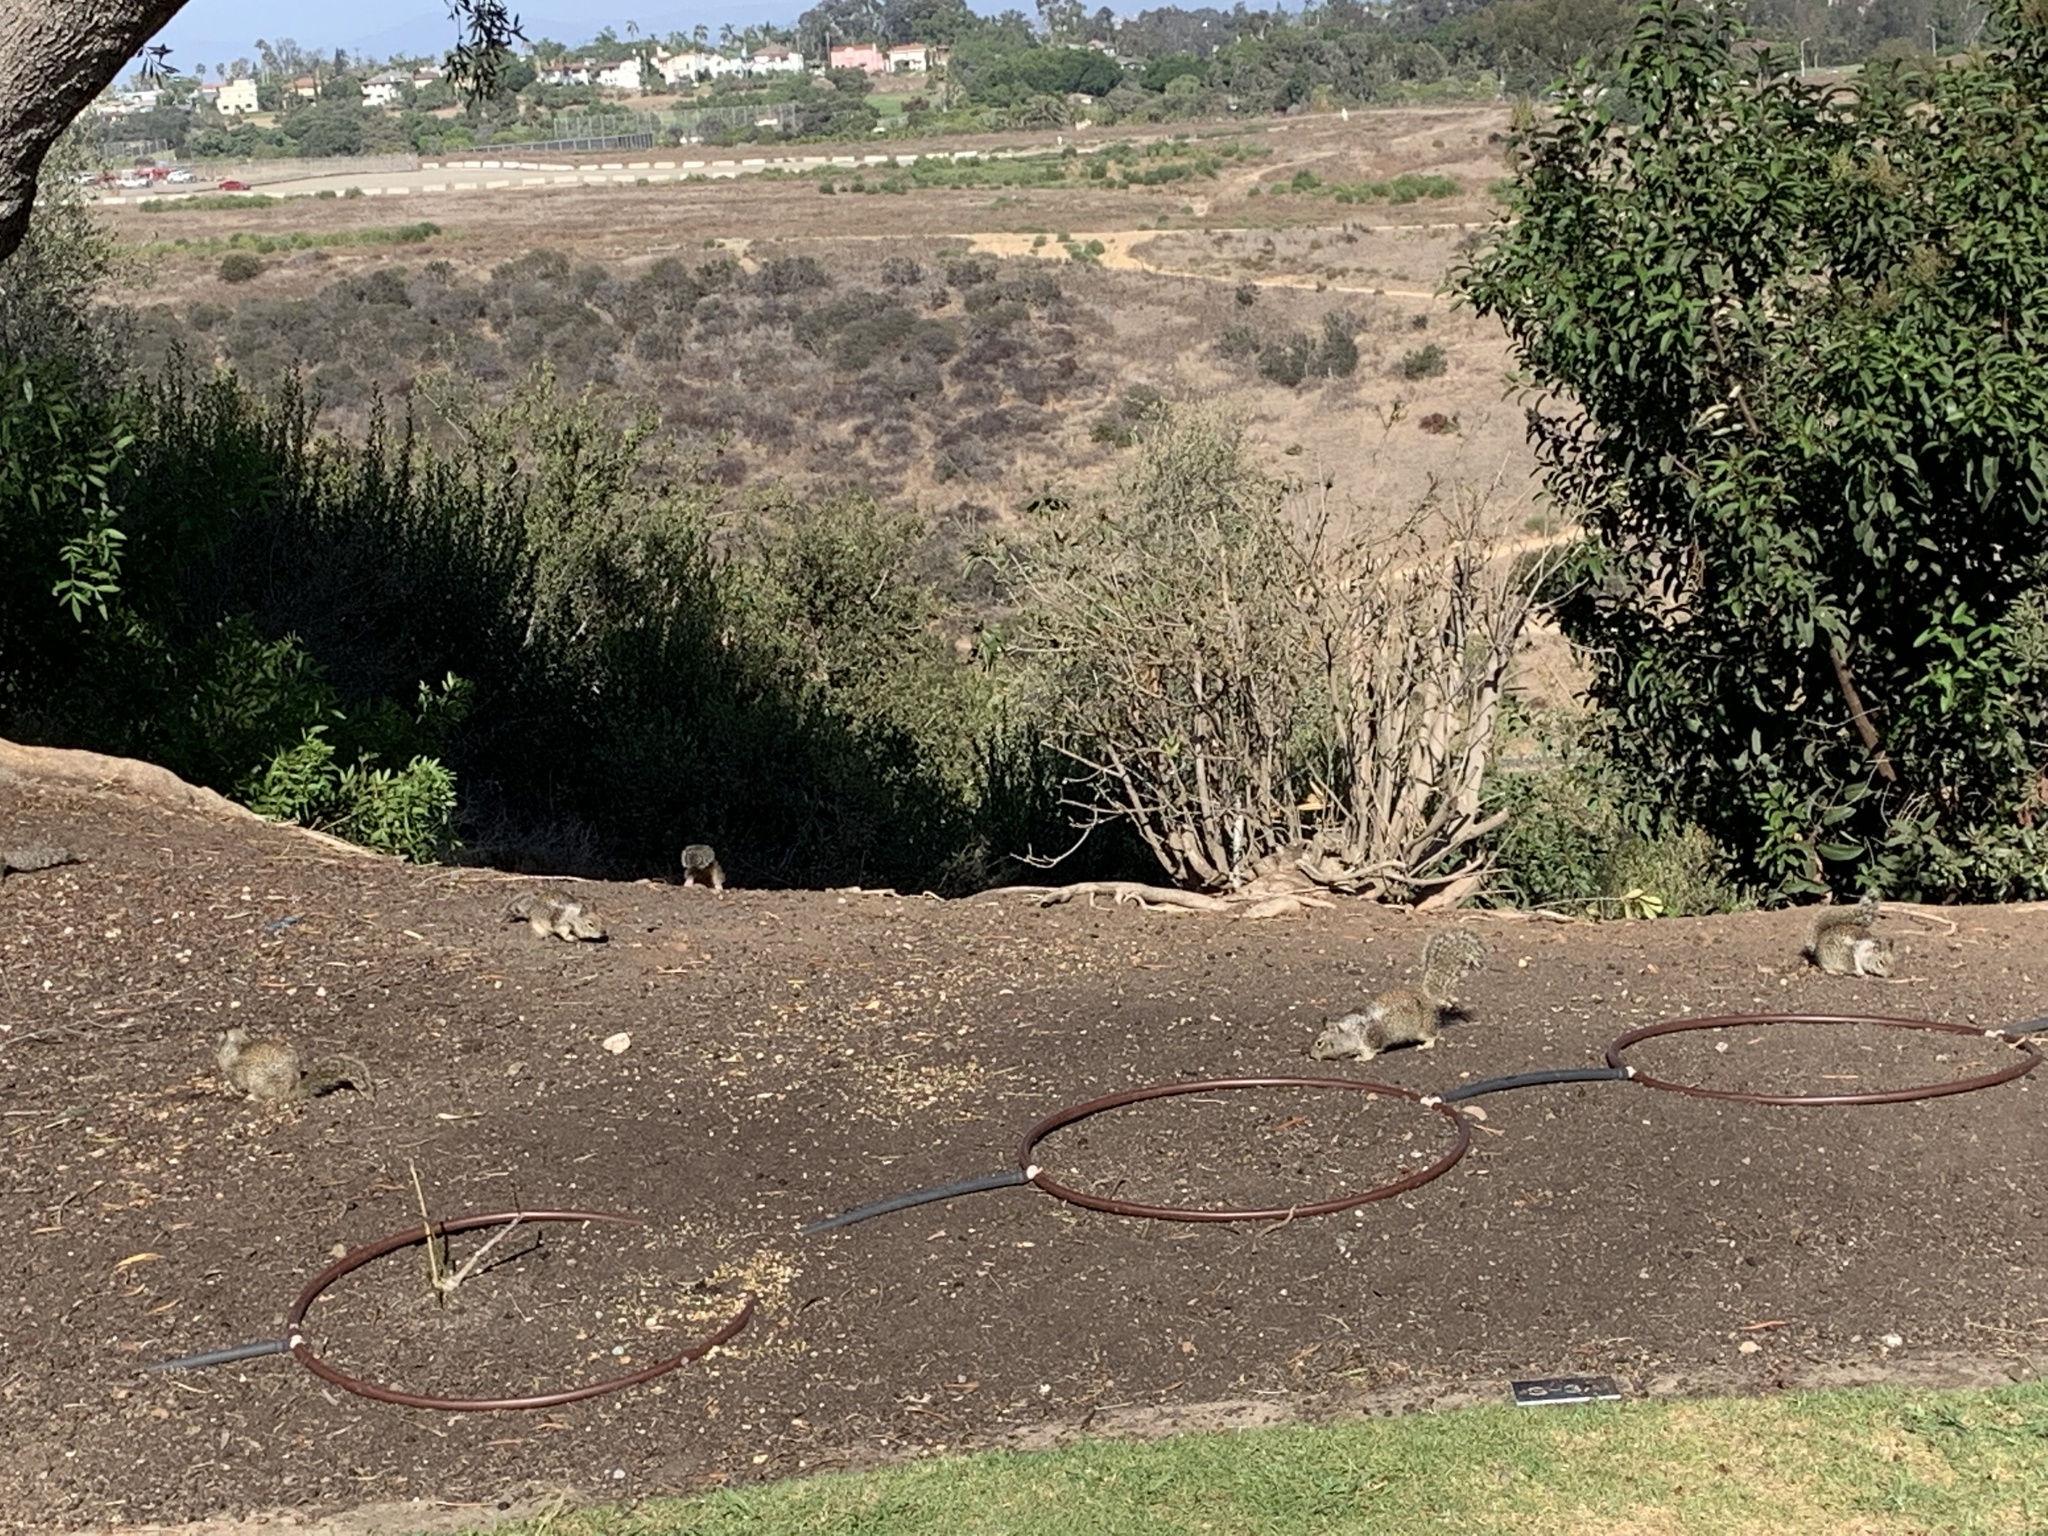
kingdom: Animalia
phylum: Chordata
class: Mammalia
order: Rodentia
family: Sciuridae
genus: Otospermophilus
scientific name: Otospermophilus beecheyi
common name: California ground squirrel
